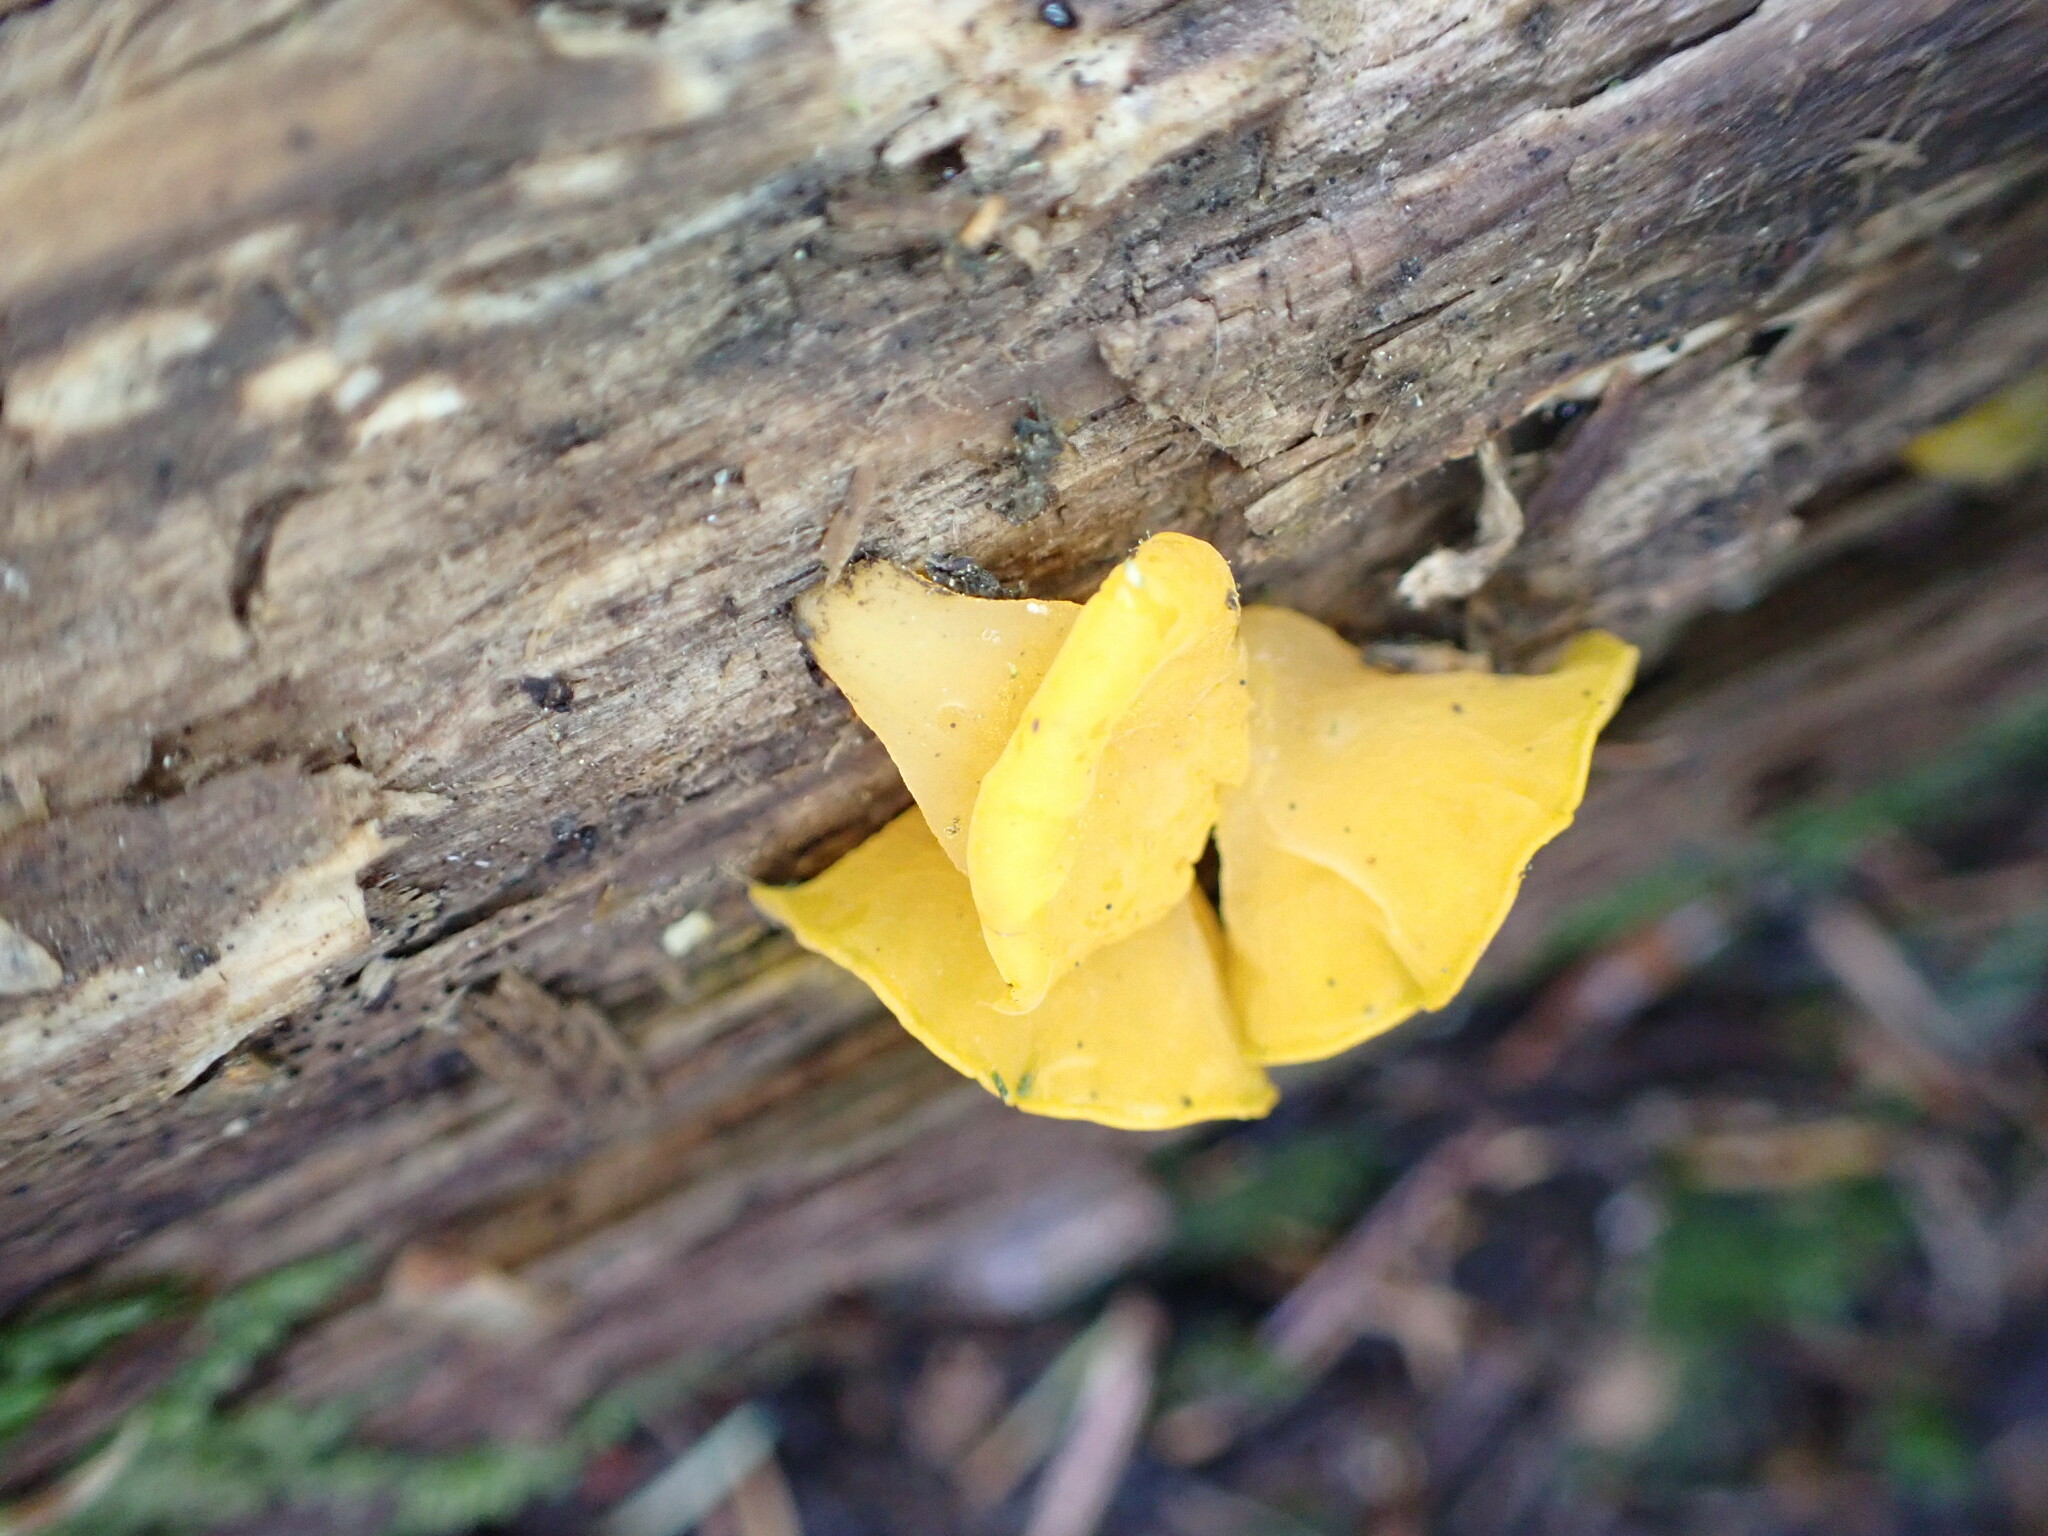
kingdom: Fungi
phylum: Basidiomycota
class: Dacrymycetes
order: Dacrymycetales
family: Dacrymycetaceae
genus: Guepiniopsis
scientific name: Guepiniopsis alpina
